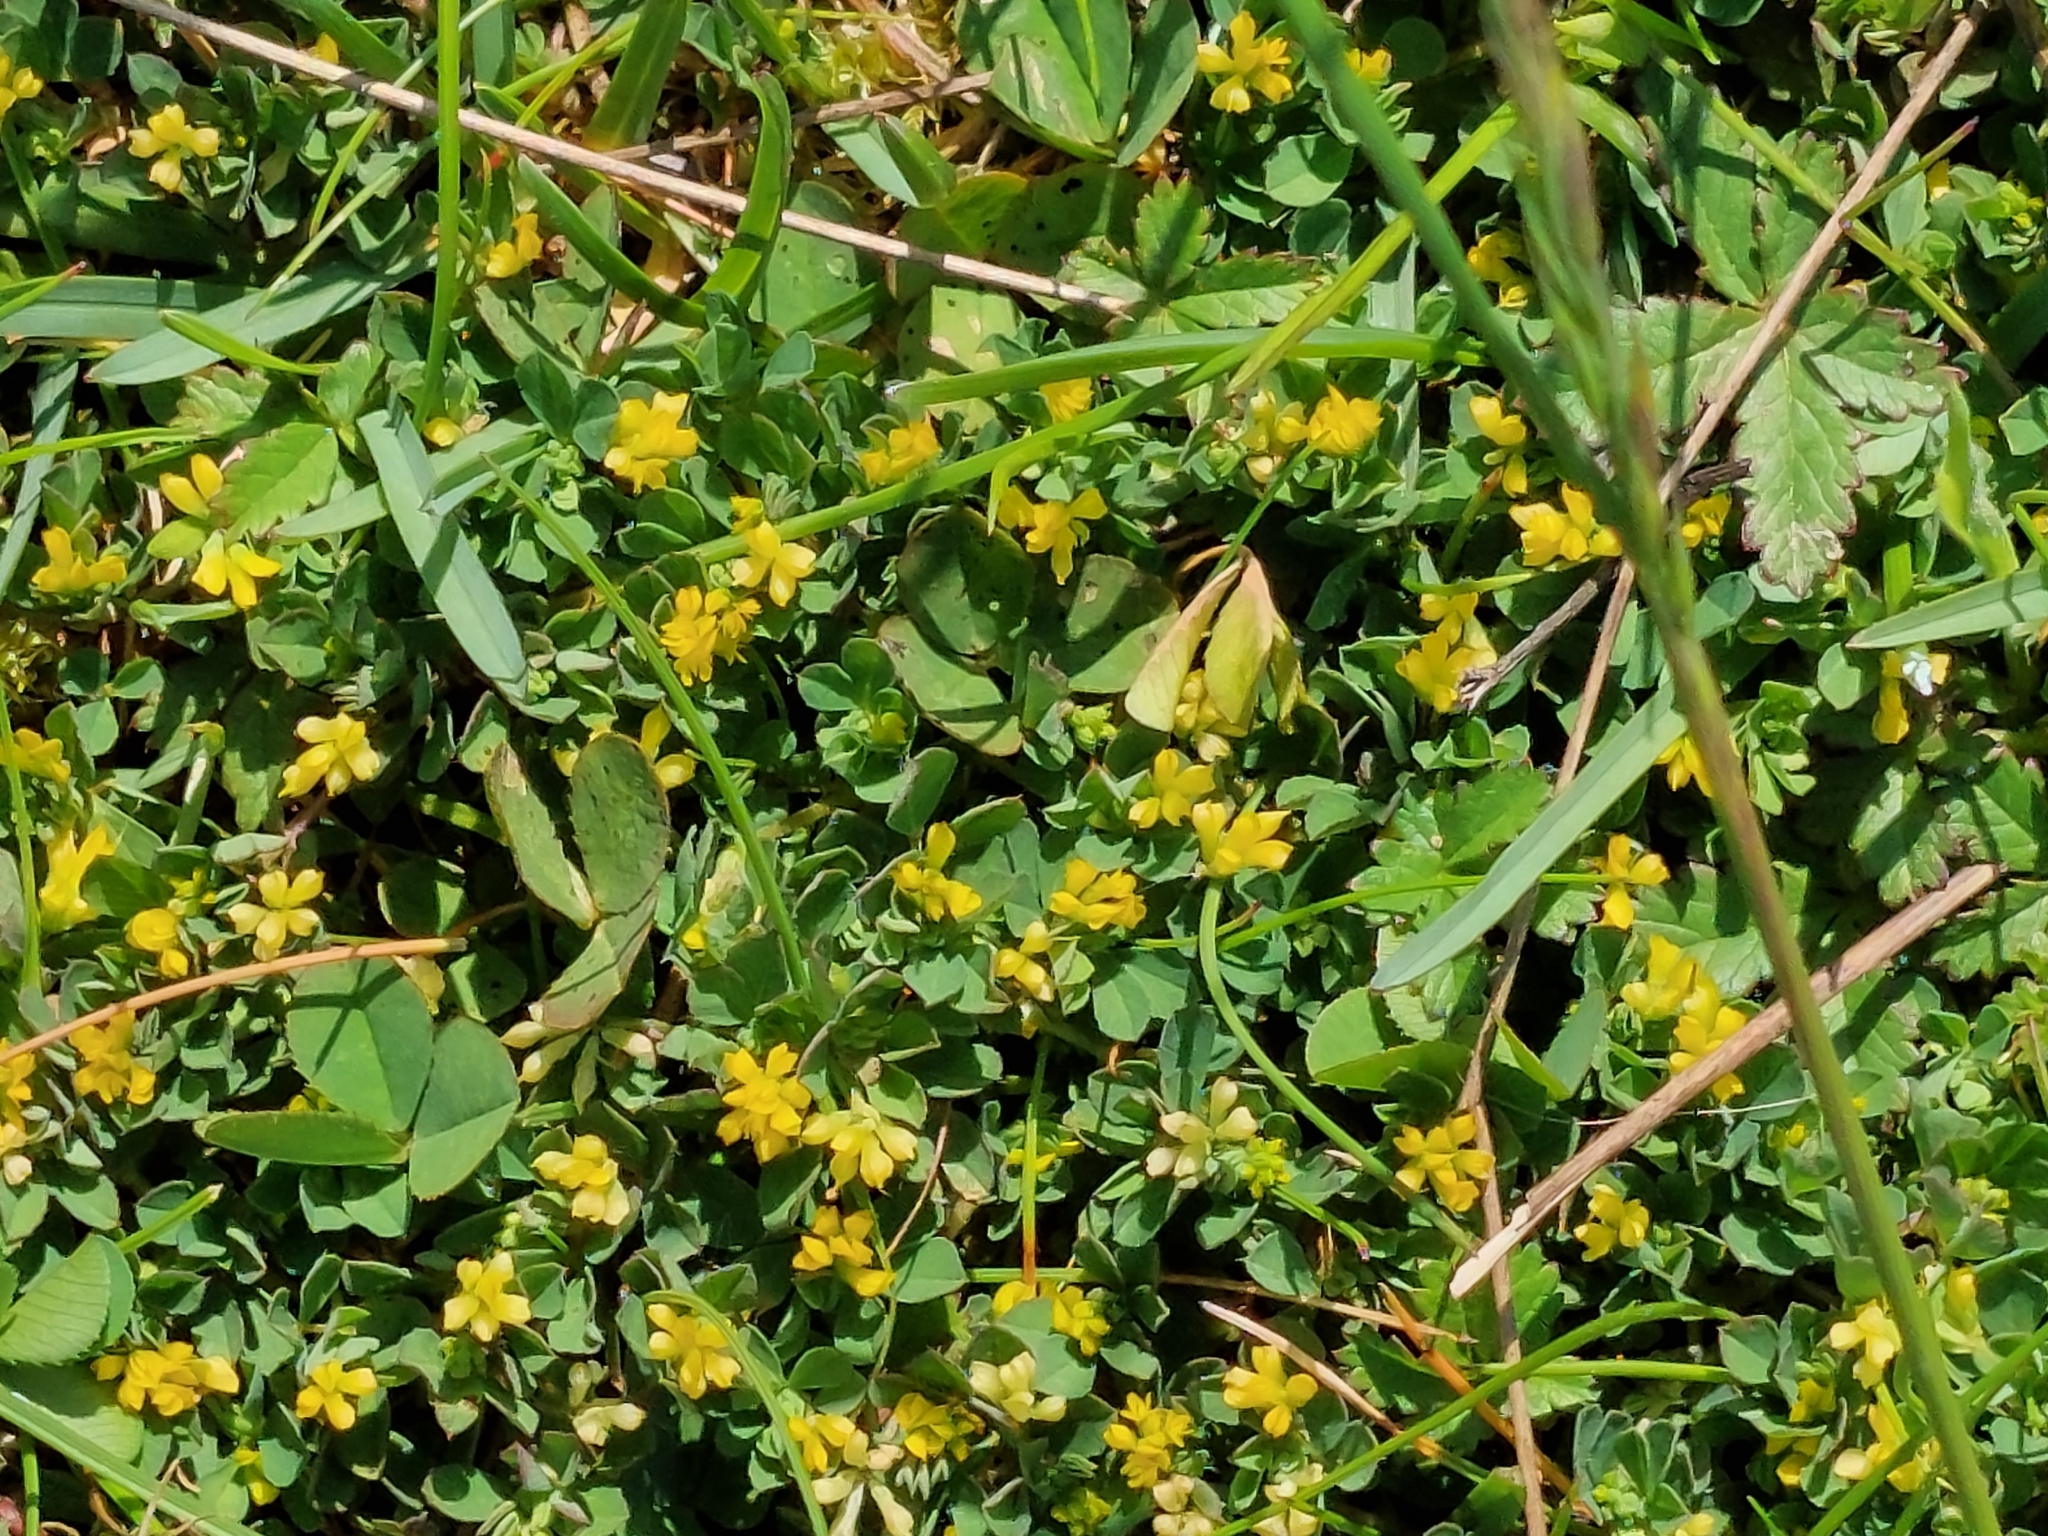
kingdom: Plantae
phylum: Tracheophyta
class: Magnoliopsida
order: Fabales
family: Fabaceae
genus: Trifolium
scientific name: Trifolium dubium
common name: Suckling clover
